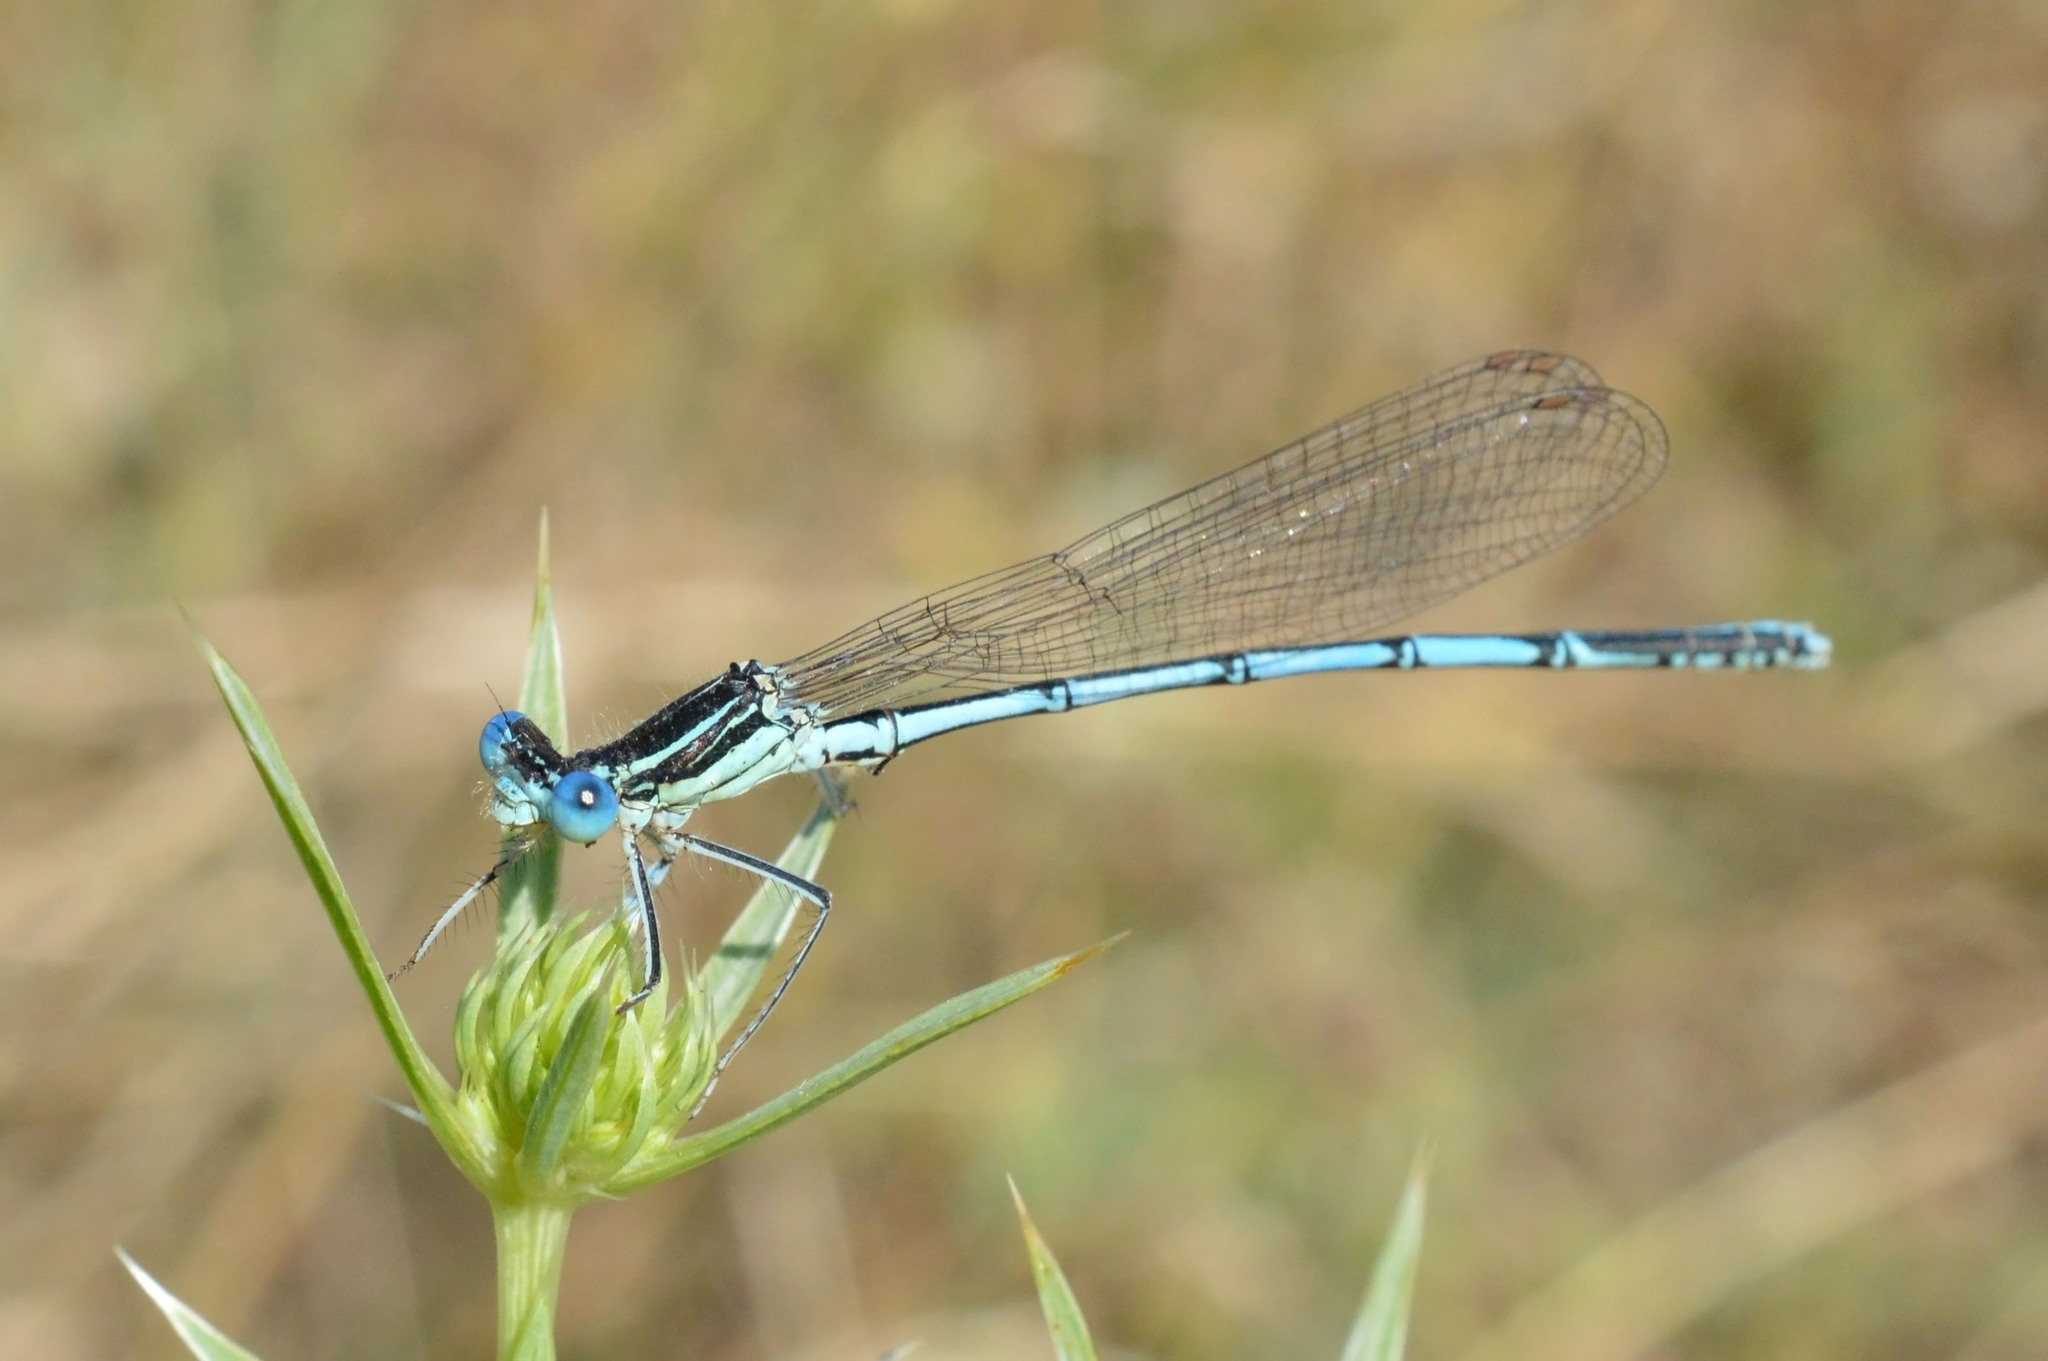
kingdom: Animalia
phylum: Arthropoda
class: Insecta
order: Odonata
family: Platycnemididae
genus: Platycnemis
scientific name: Platycnemis pennipes
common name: White-legged damselfly
